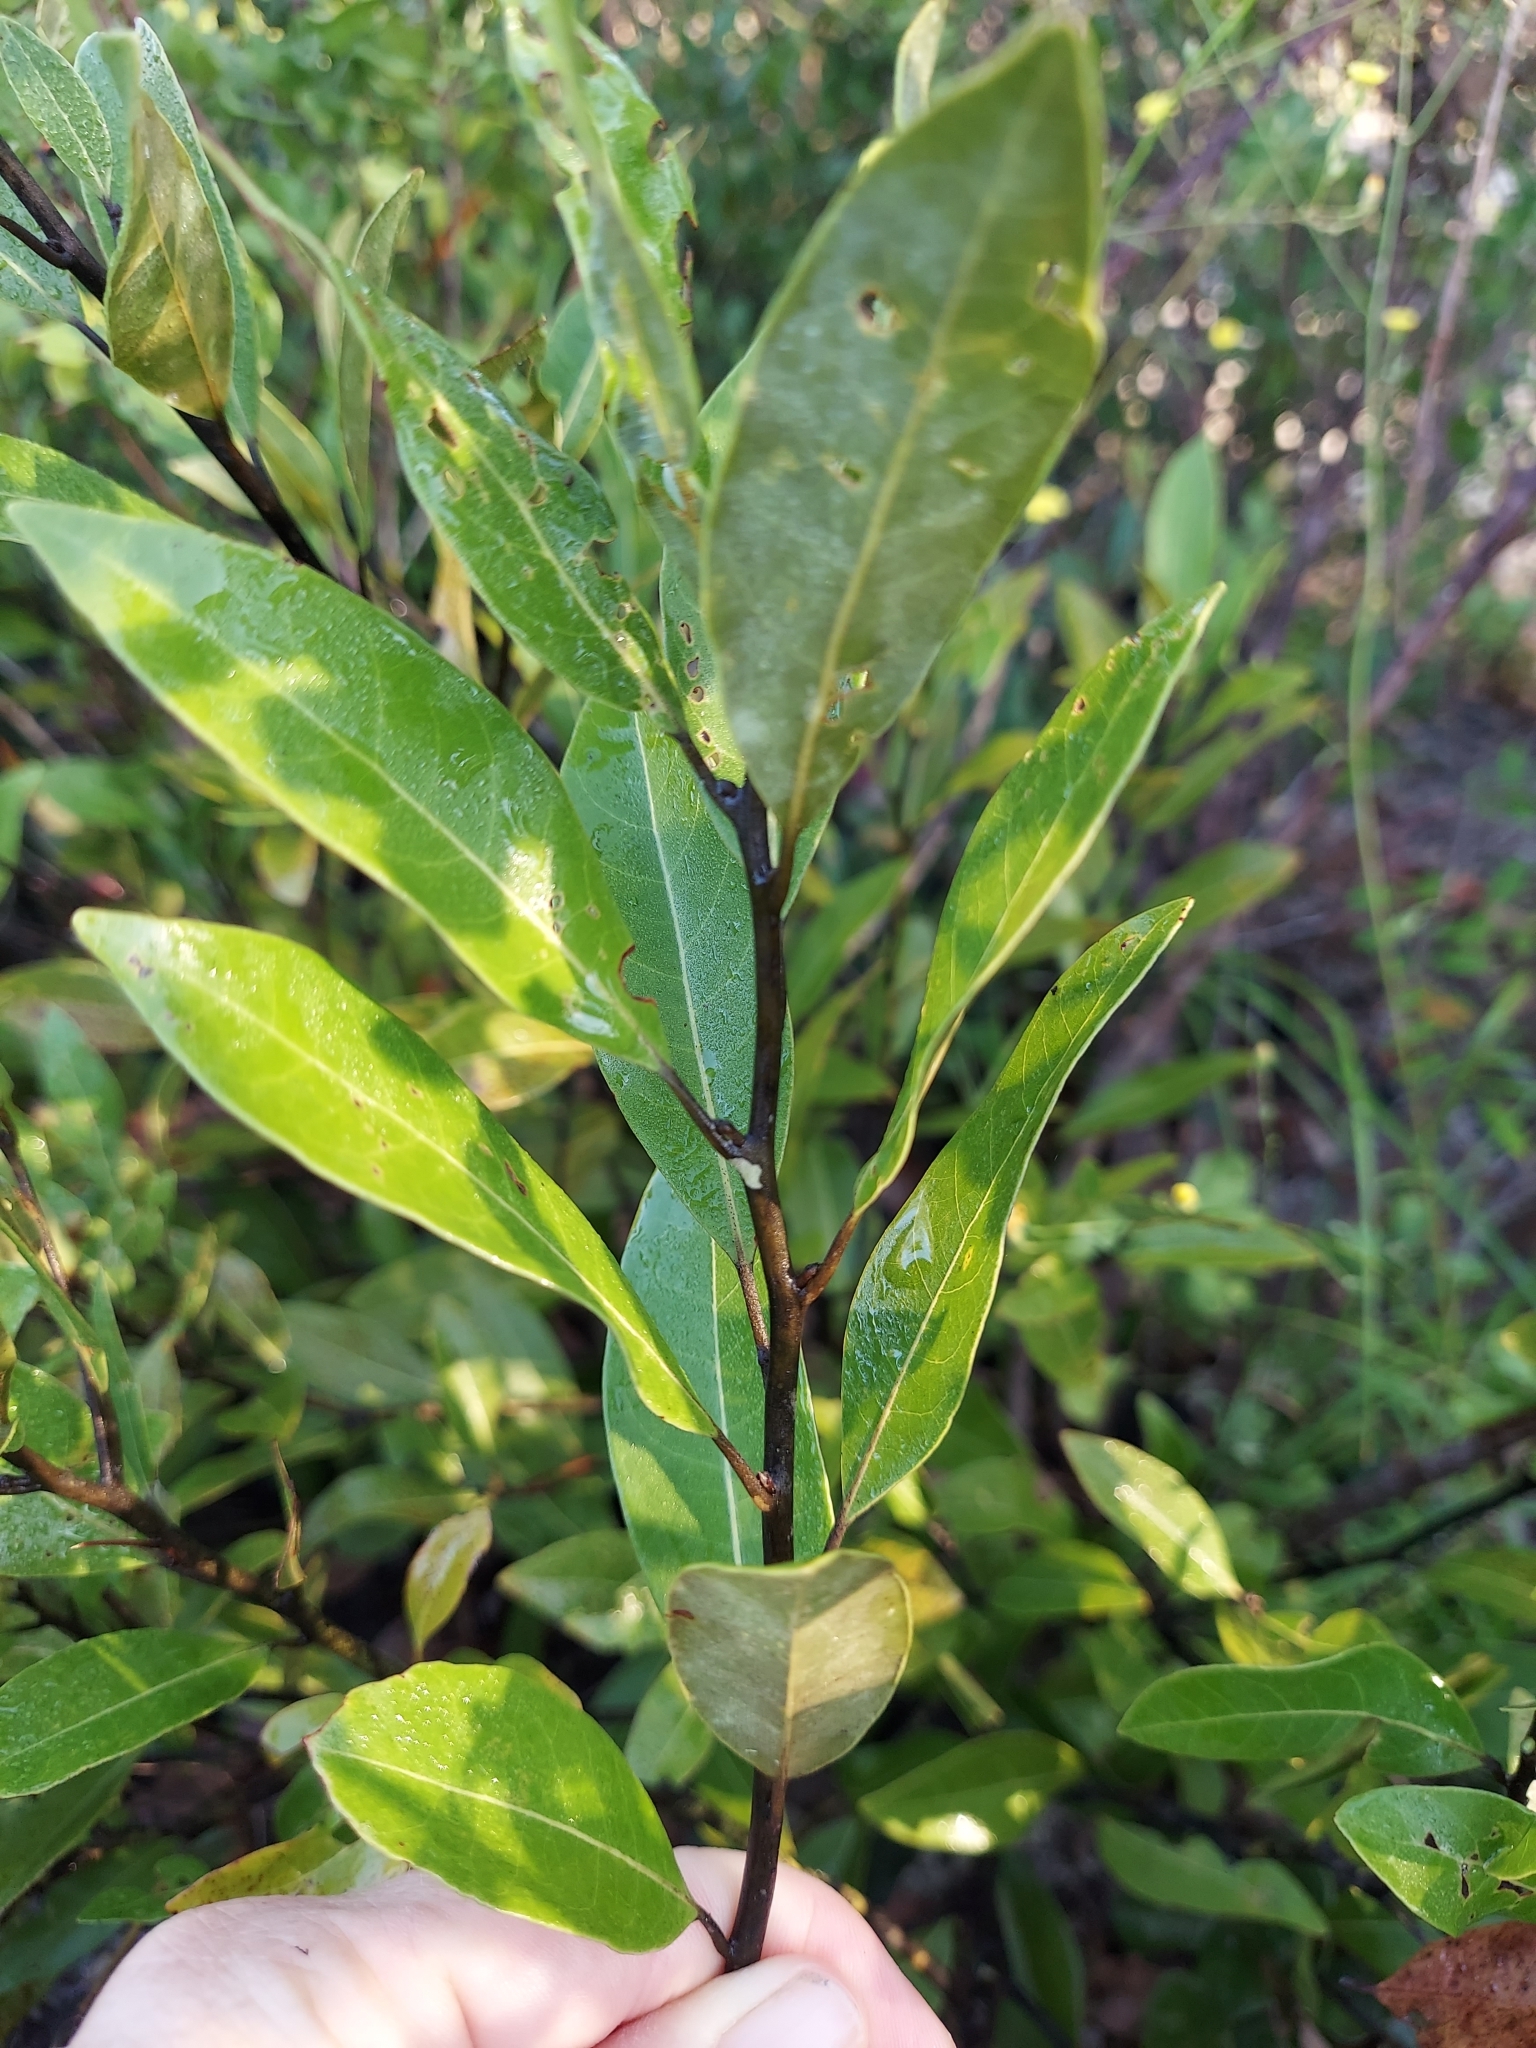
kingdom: Plantae
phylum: Tracheophyta
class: Magnoliopsida
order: Laurales
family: Lauraceae
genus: Persea
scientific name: Persea humilis
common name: Silkbay
